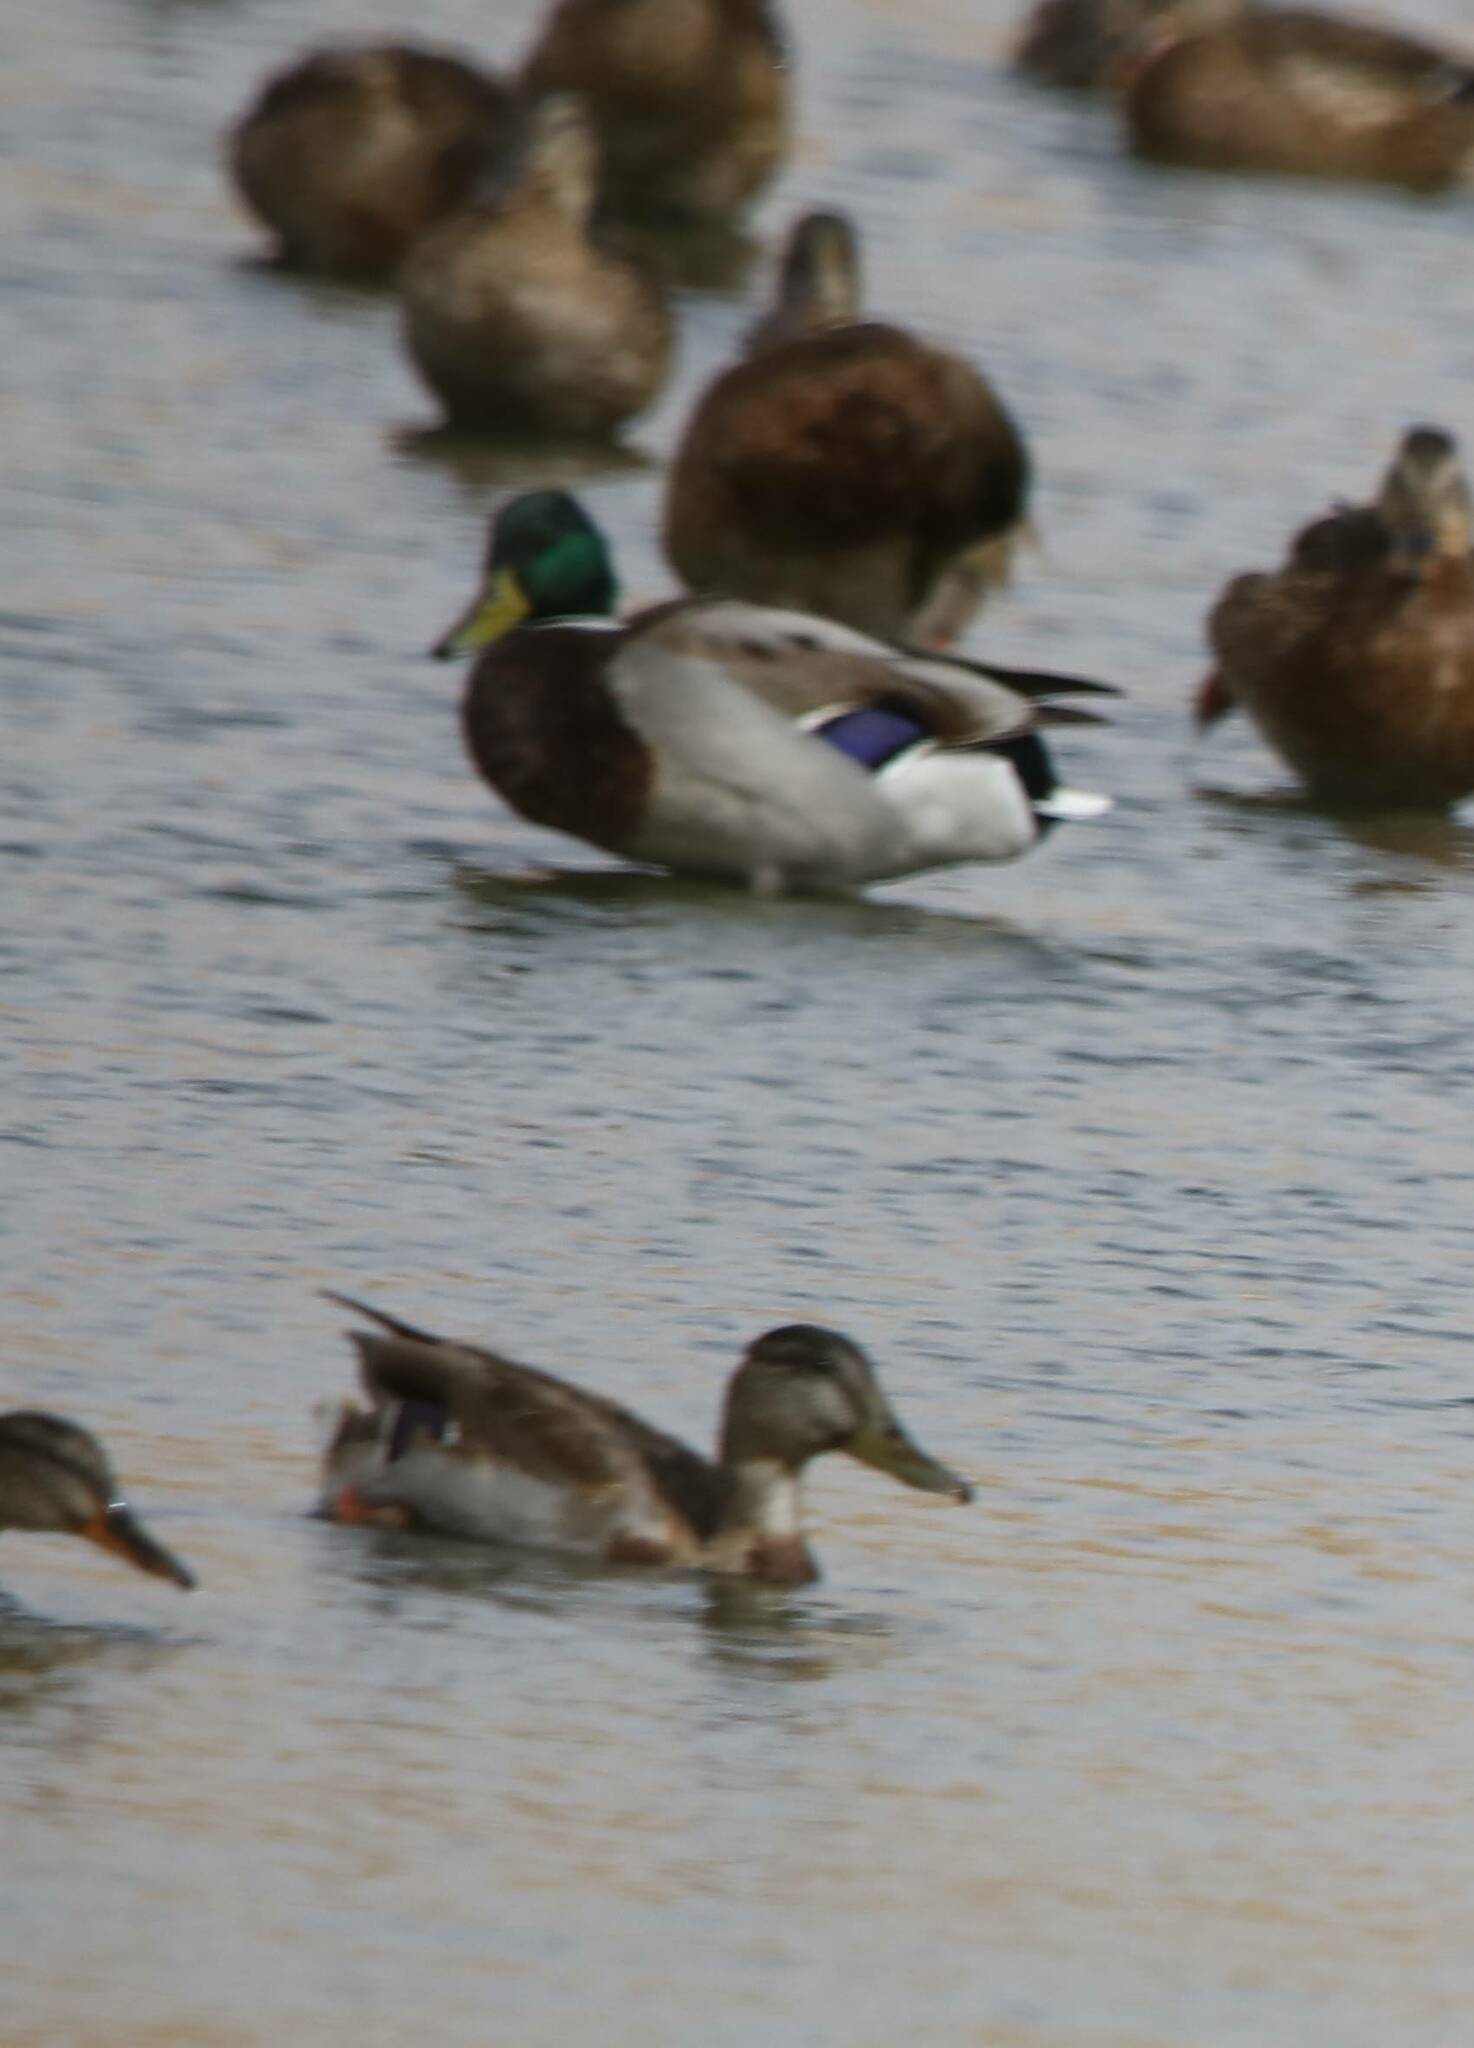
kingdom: Animalia
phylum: Chordata
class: Aves
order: Anseriformes
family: Anatidae
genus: Anas
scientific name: Anas platyrhynchos
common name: Mallard
